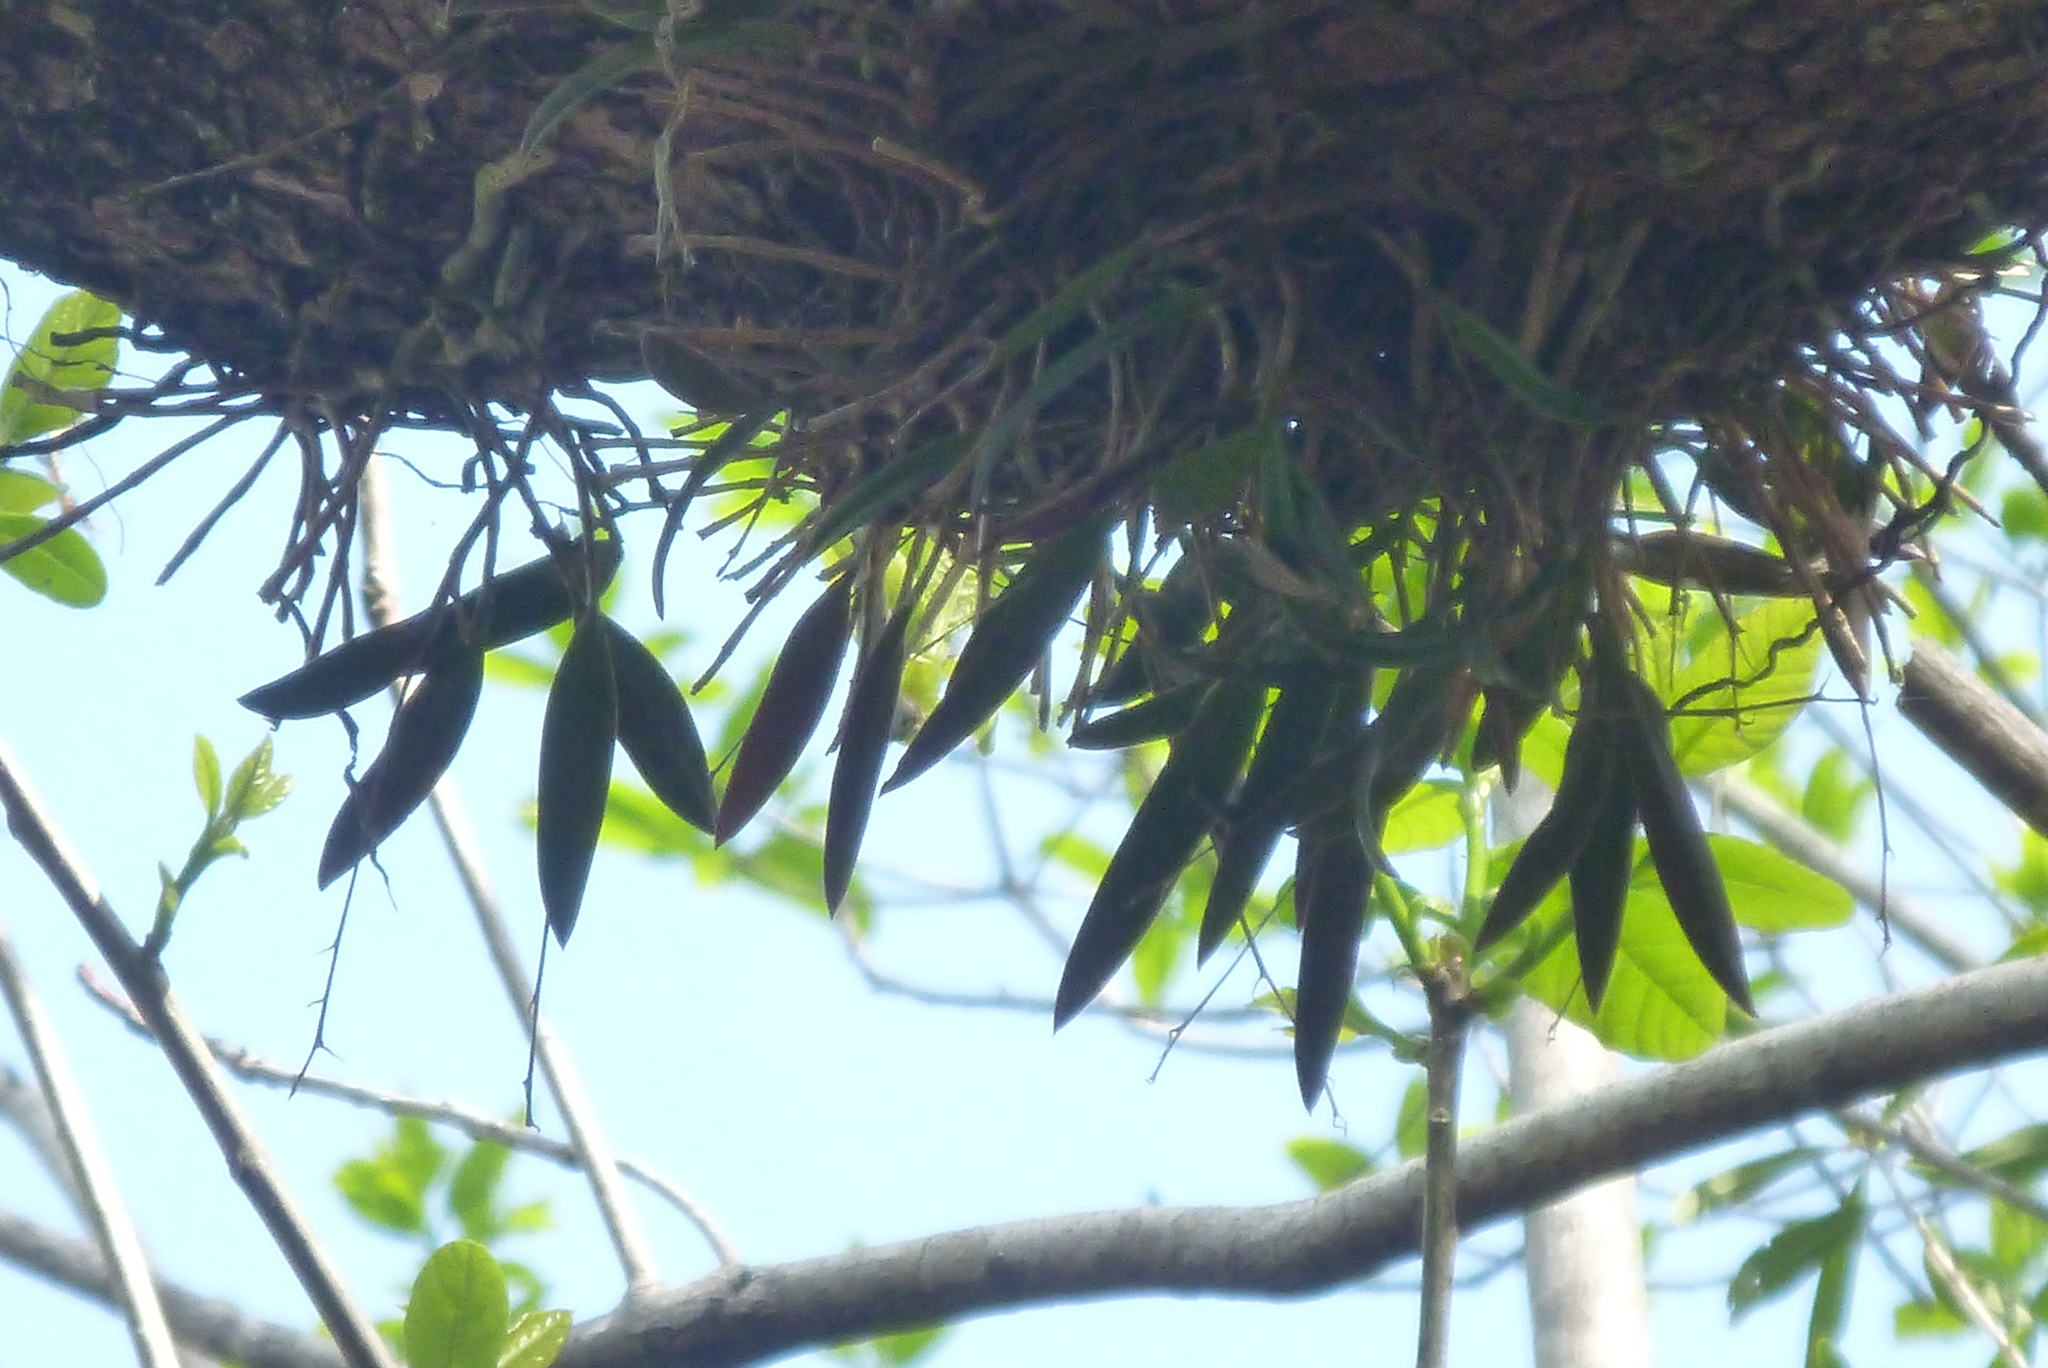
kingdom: Plantae
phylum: Tracheophyta
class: Liliopsida
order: Asparagales
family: Orchidaceae
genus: Epidendrum
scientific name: Epidendrum conopseum
